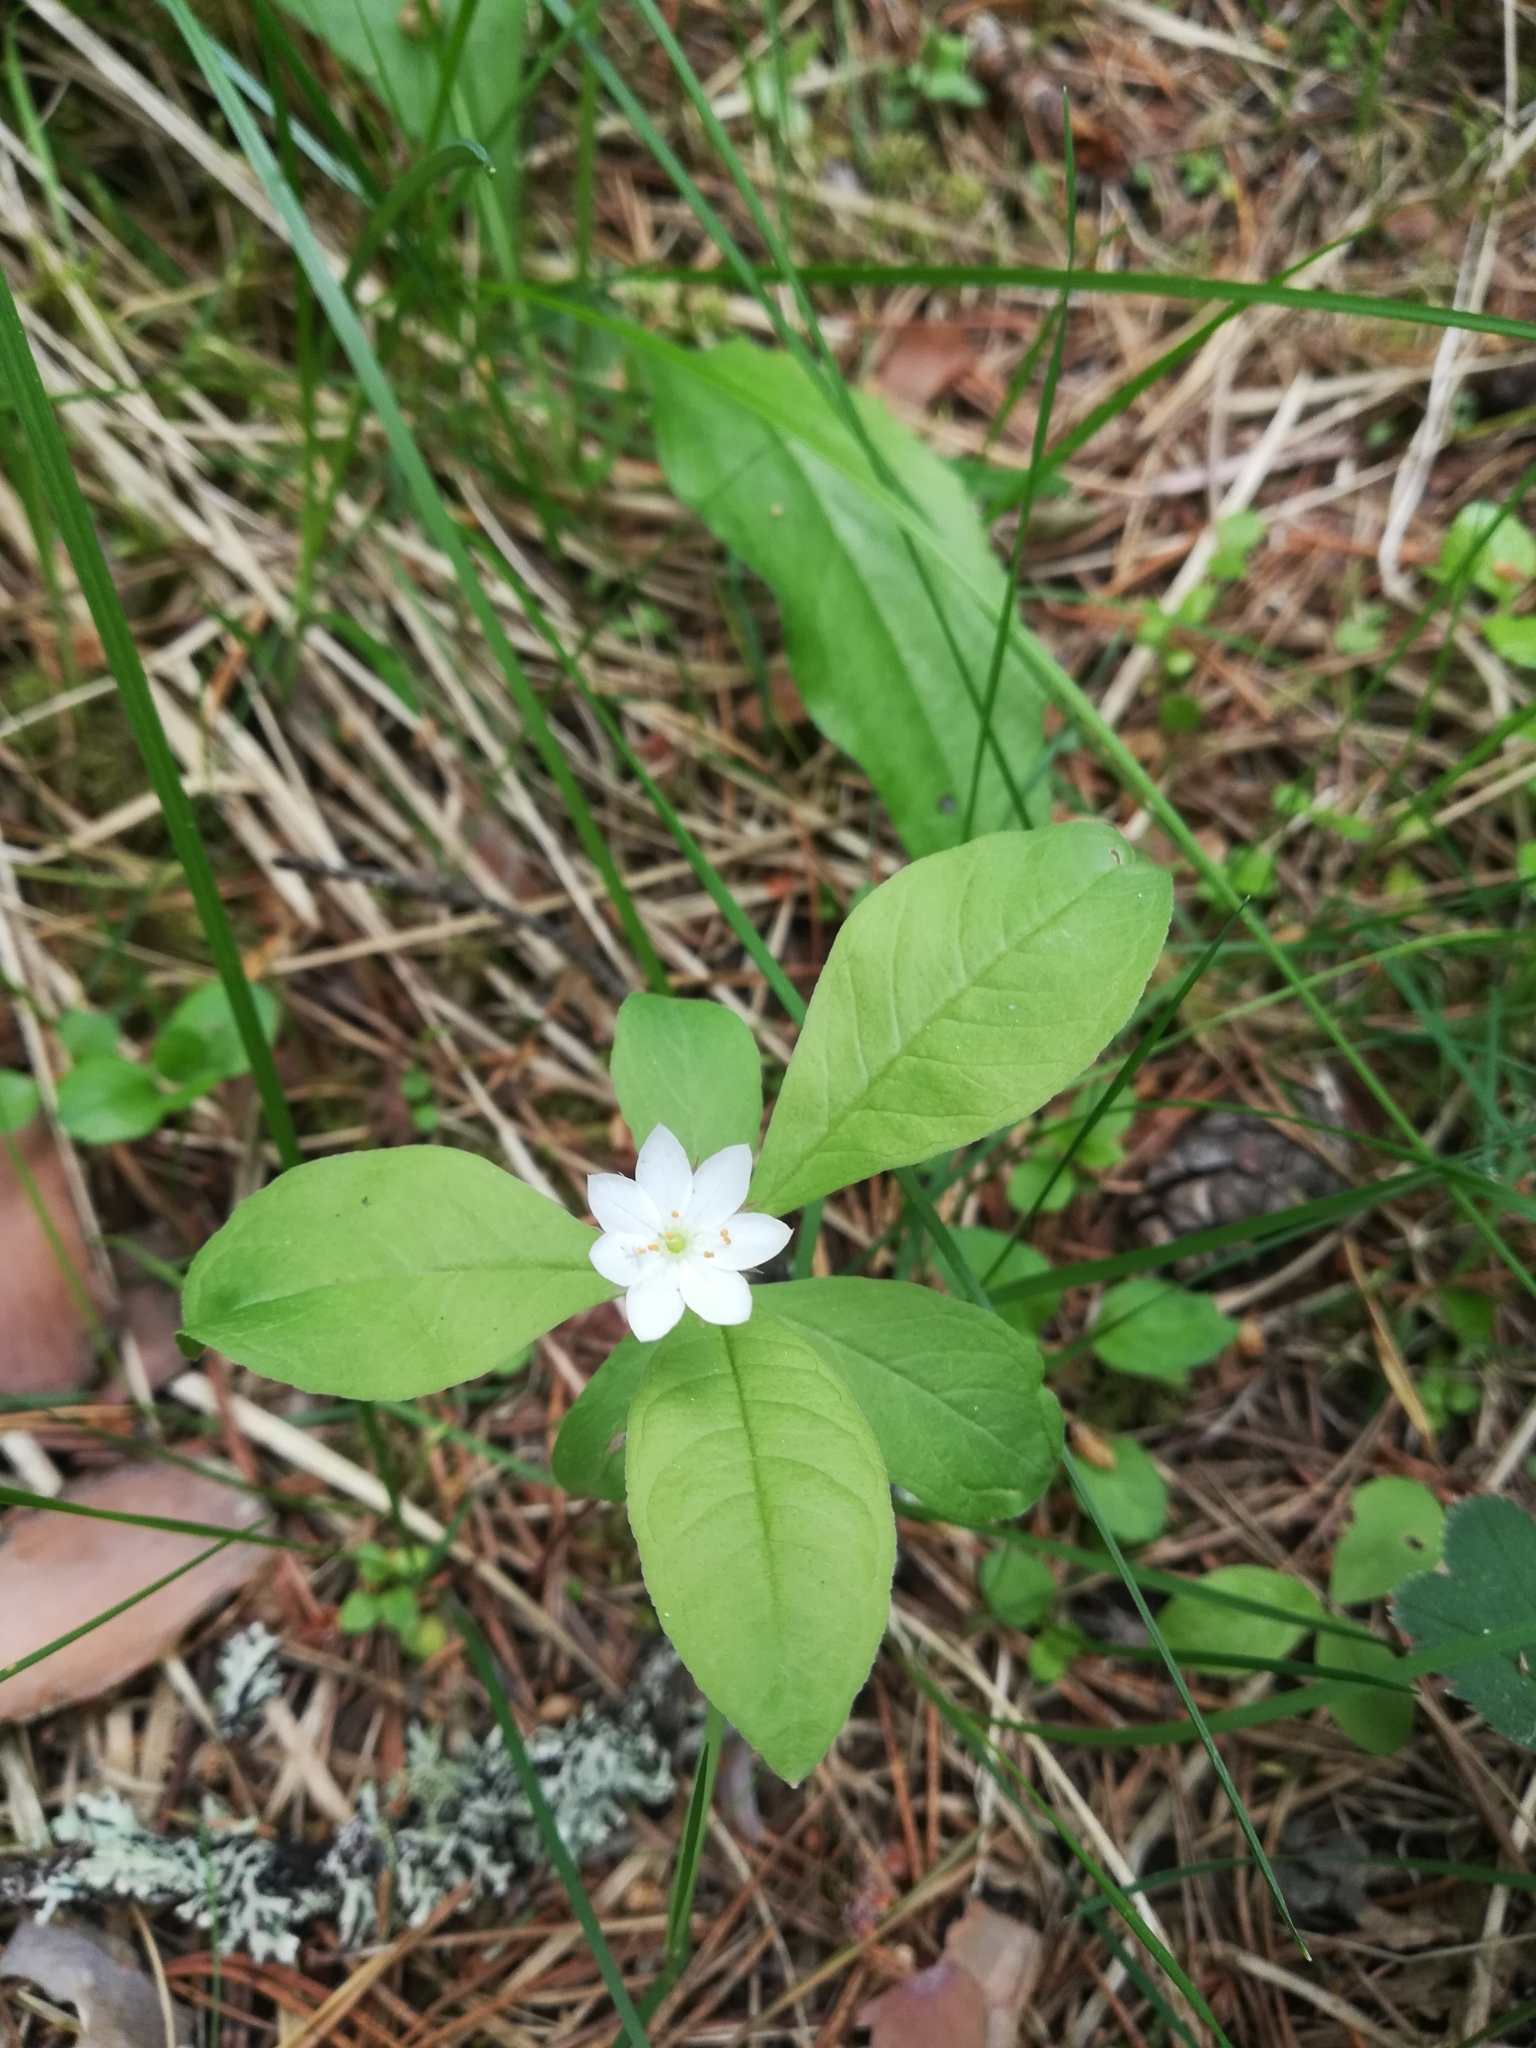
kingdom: Plantae
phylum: Tracheophyta
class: Magnoliopsida
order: Ericales
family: Primulaceae
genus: Lysimachia
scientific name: Lysimachia europaea
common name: Arctic starflower
